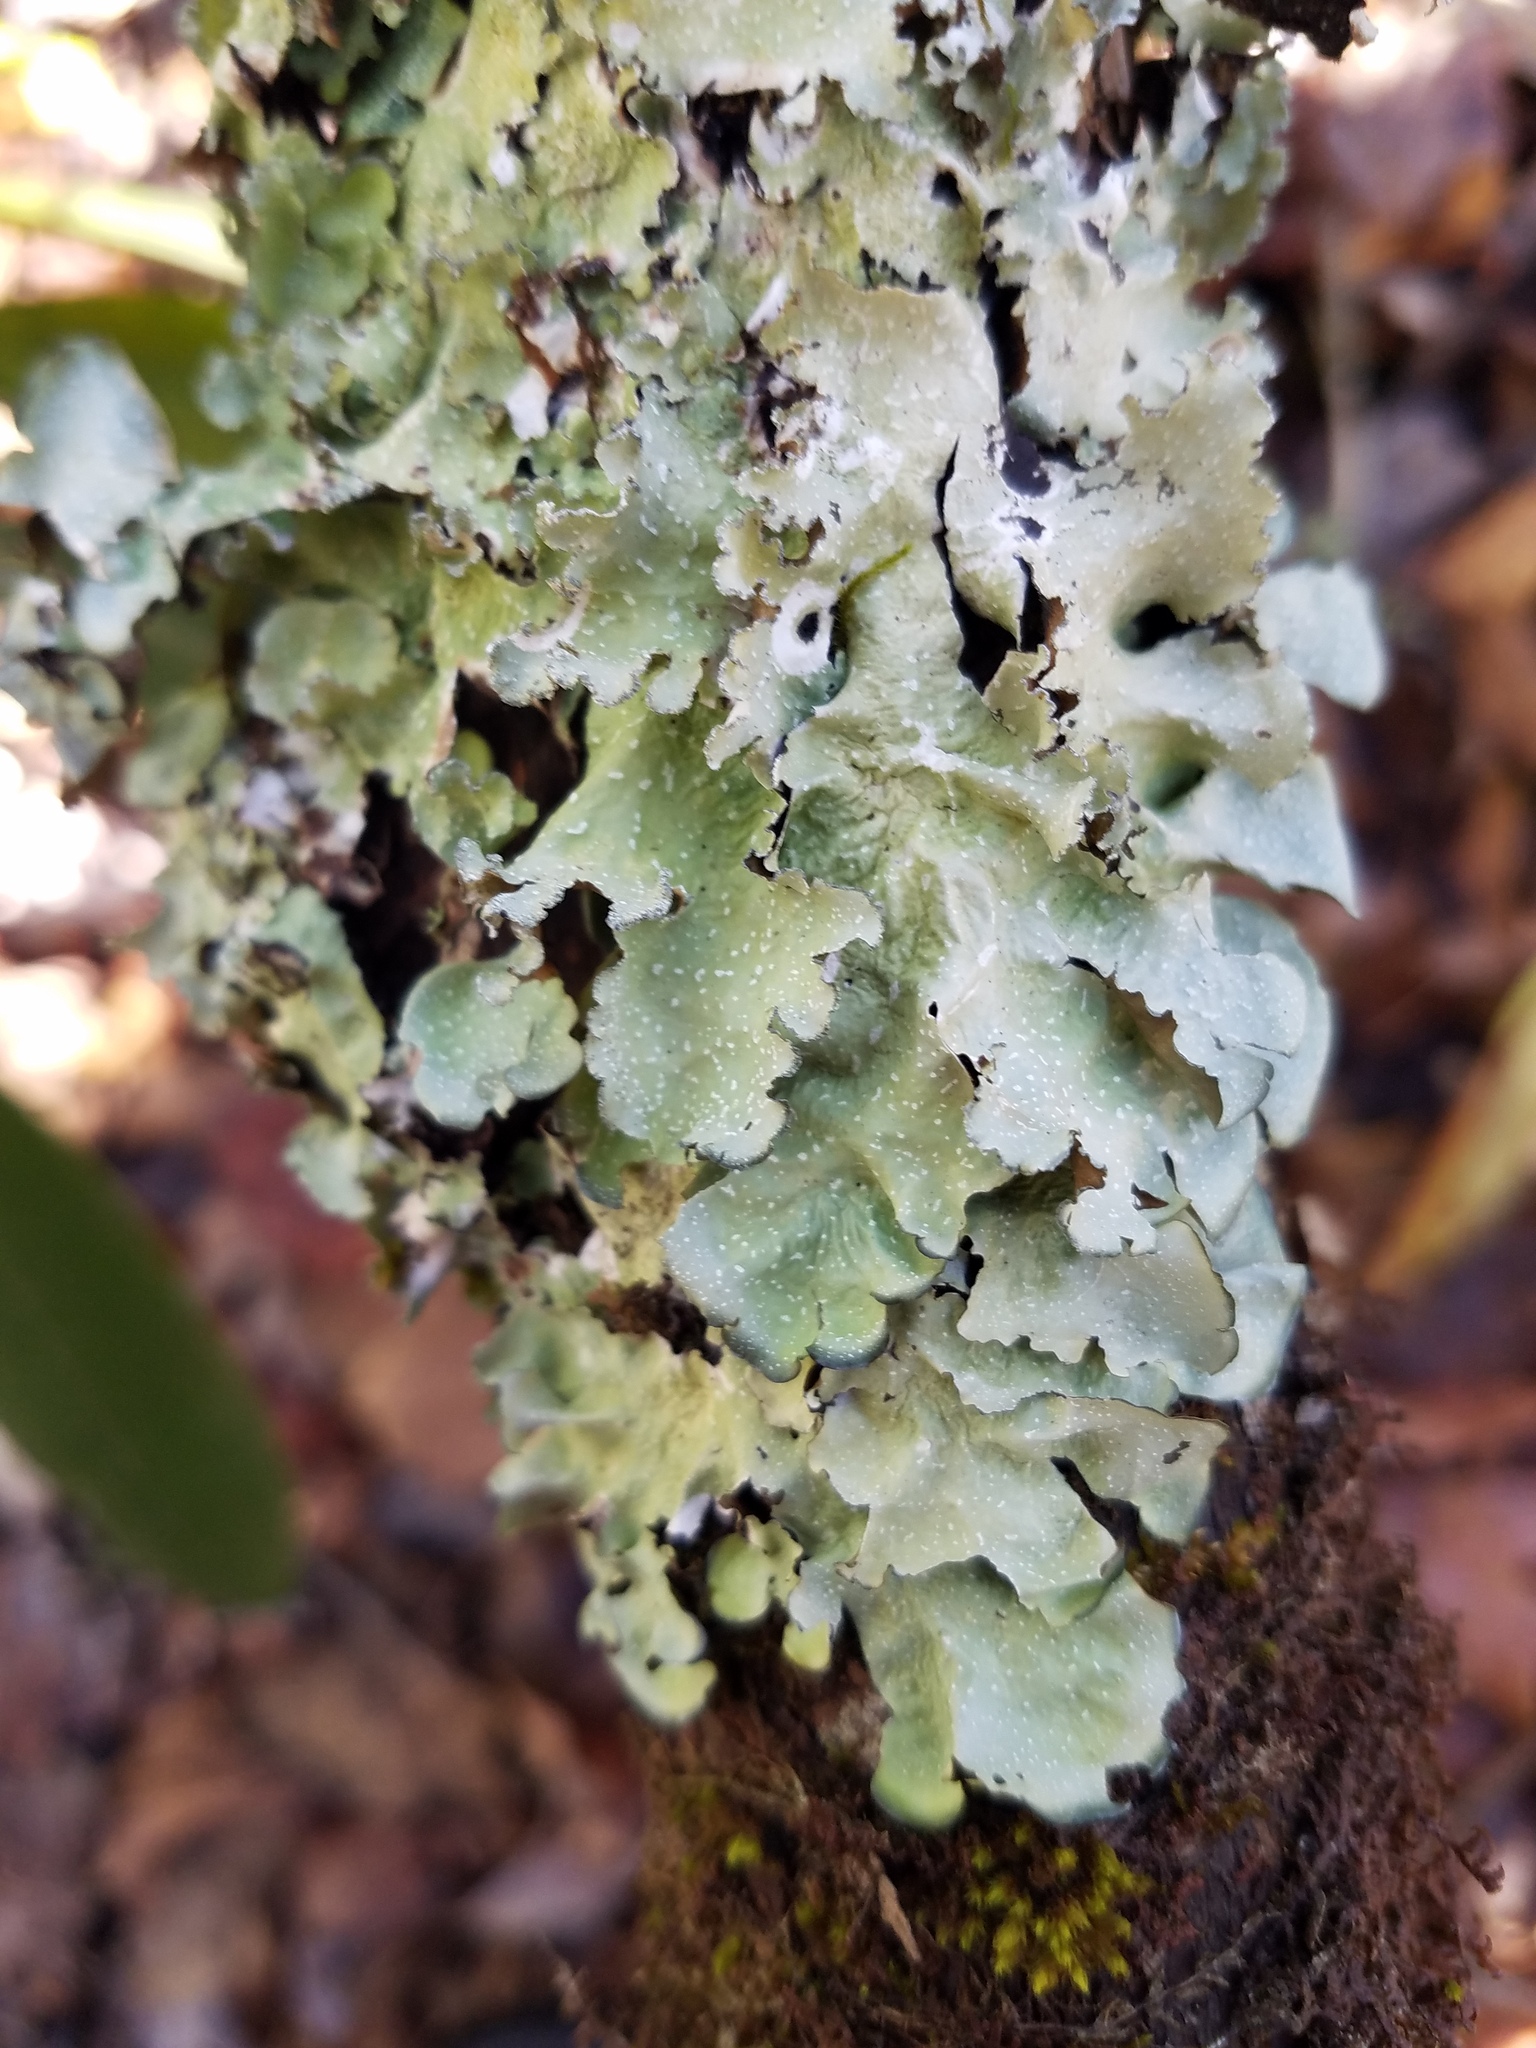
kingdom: Fungi
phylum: Ascomycota
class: Lecanoromycetes
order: Lecanorales
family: Parmeliaceae
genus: Cetrelia
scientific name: Cetrelia chicitae
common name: Chicita's sea storm lichen
